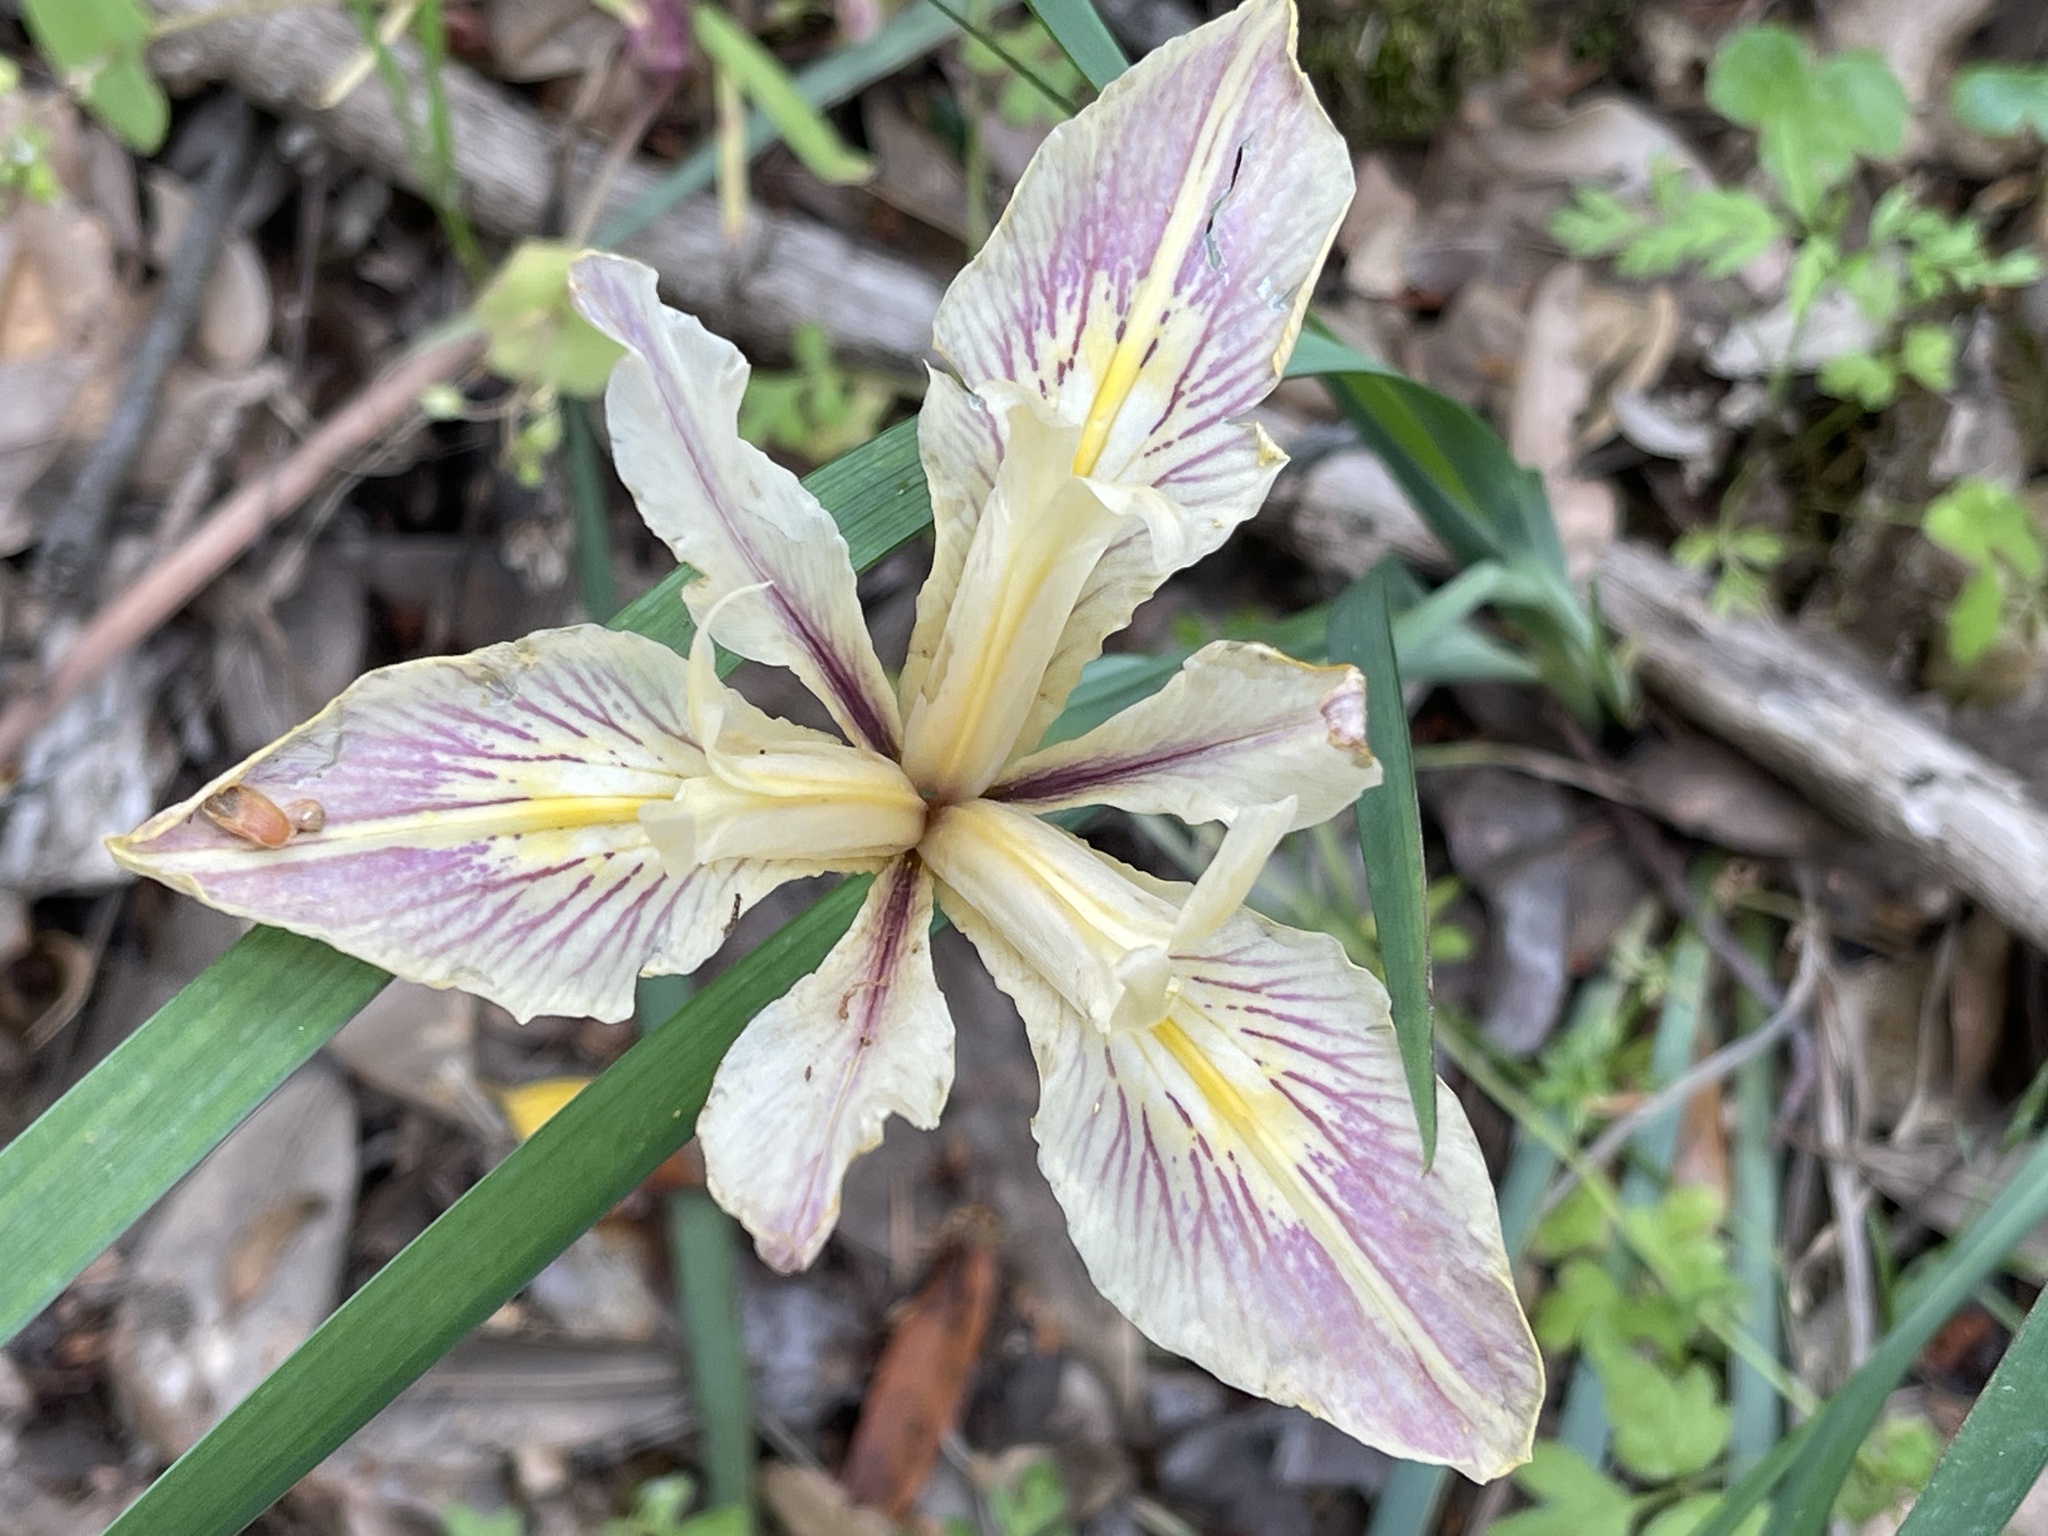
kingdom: Plantae
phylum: Tracheophyta
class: Liliopsida
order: Asparagales
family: Iridaceae
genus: Iris
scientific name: Iris fernaldii
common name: Fernald's iris
